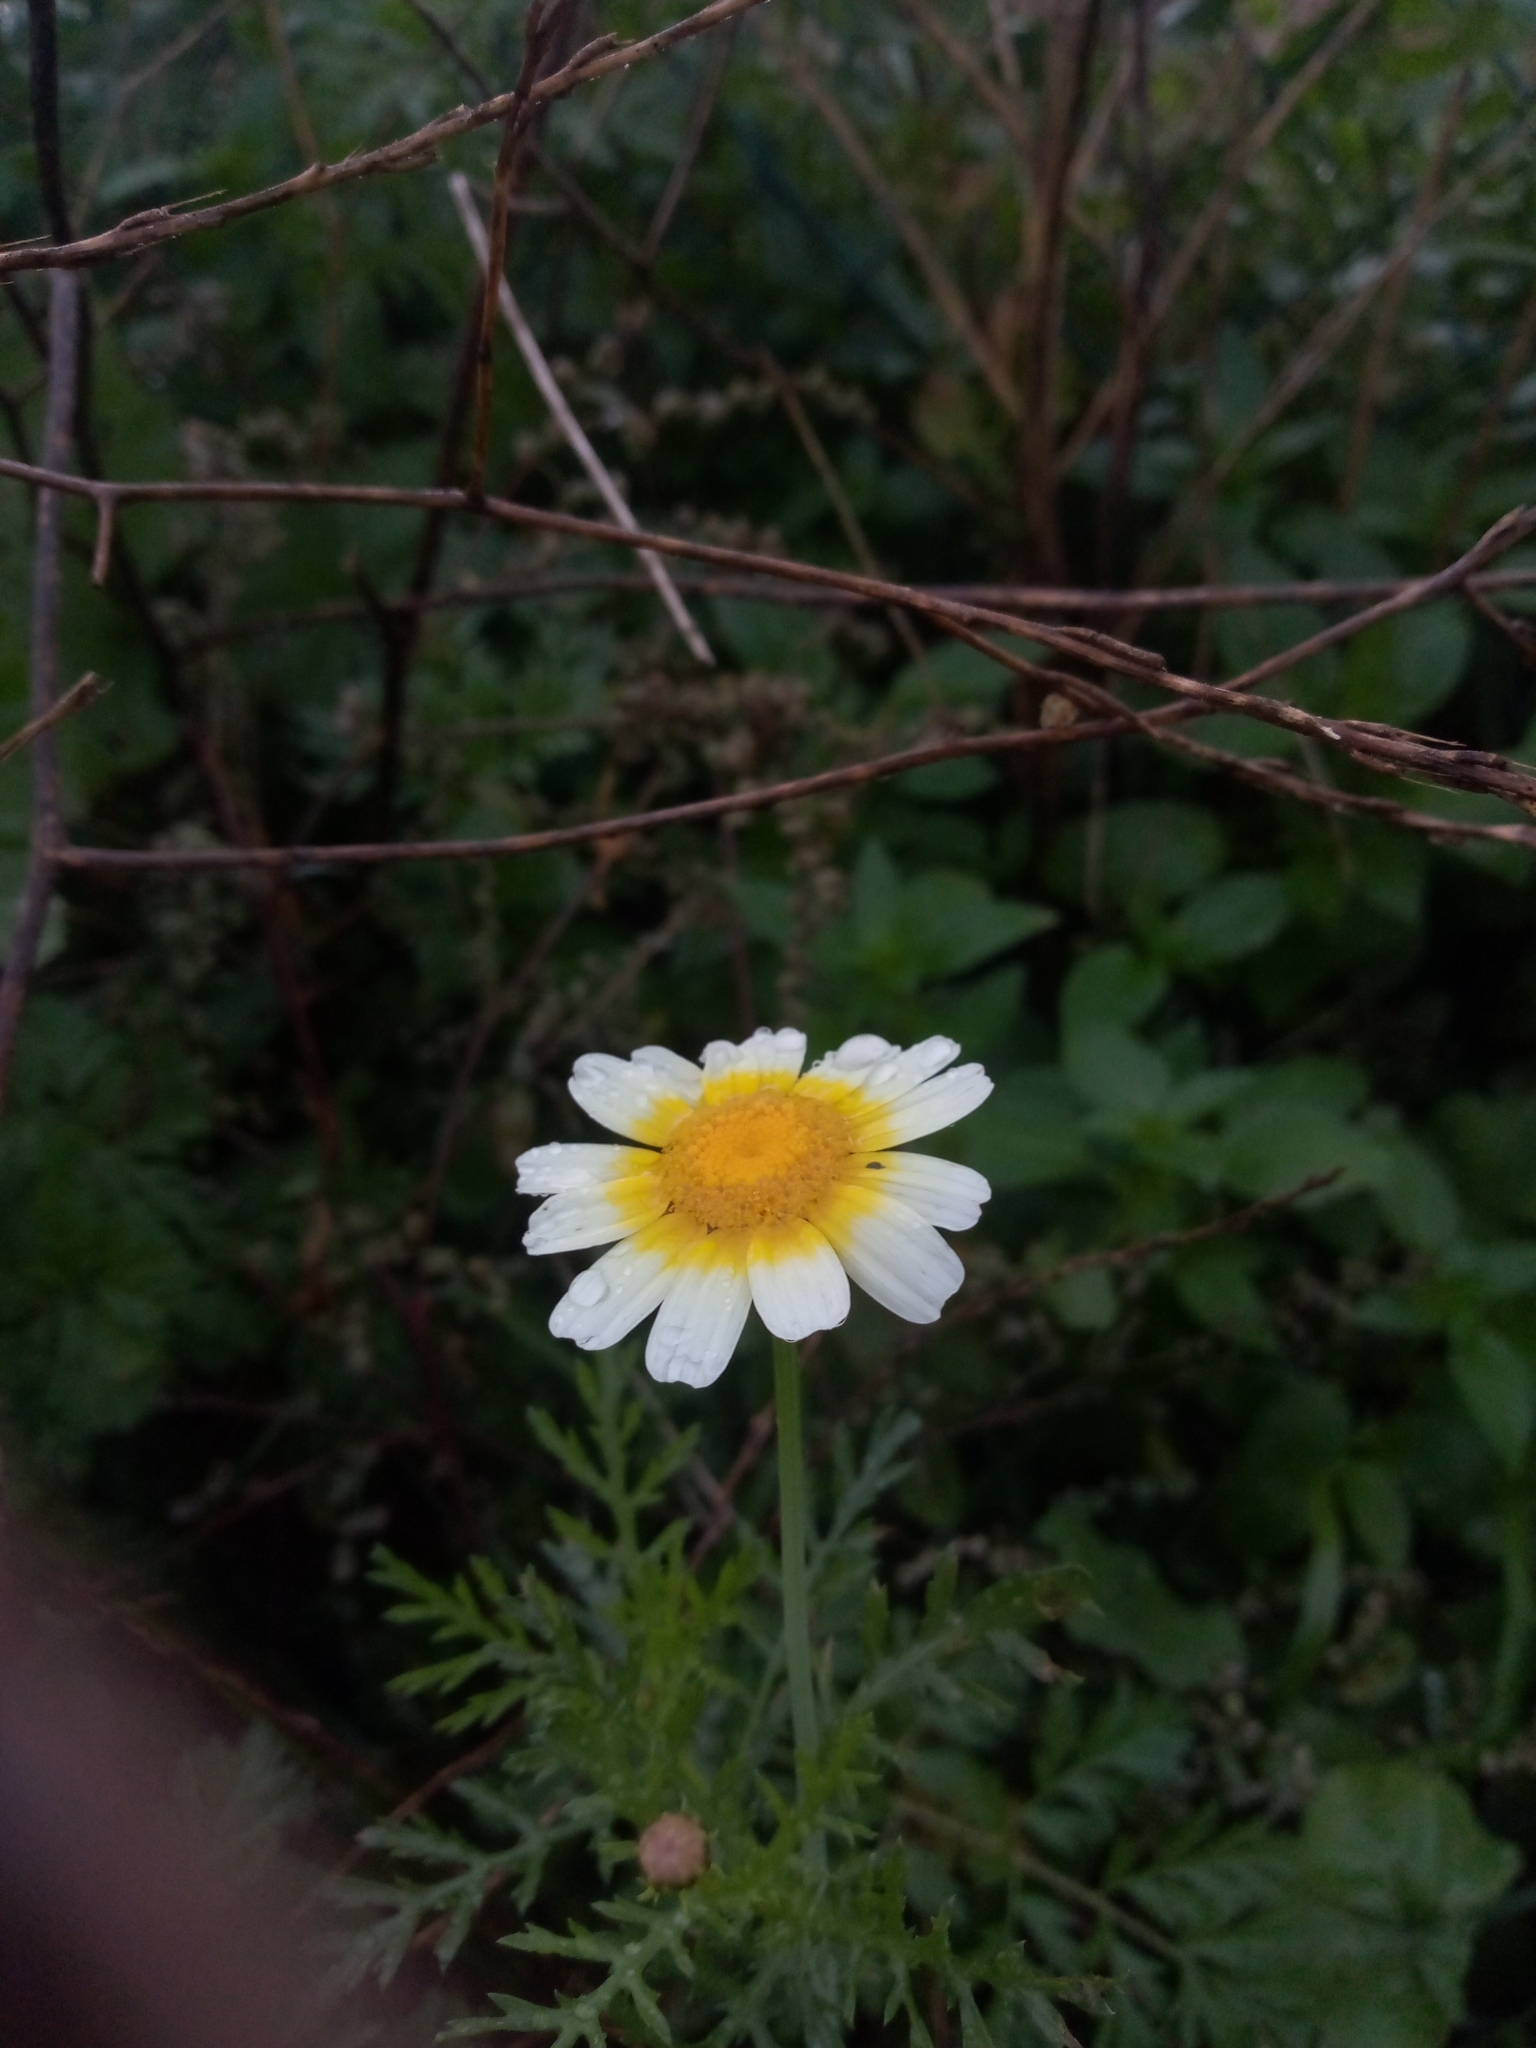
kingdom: Plantae
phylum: Tracheophyta
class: Magnoliopsida
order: Asterales
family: Asteraceae
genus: Glebionis
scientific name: Glebionis coronaria
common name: Crowndaisy
